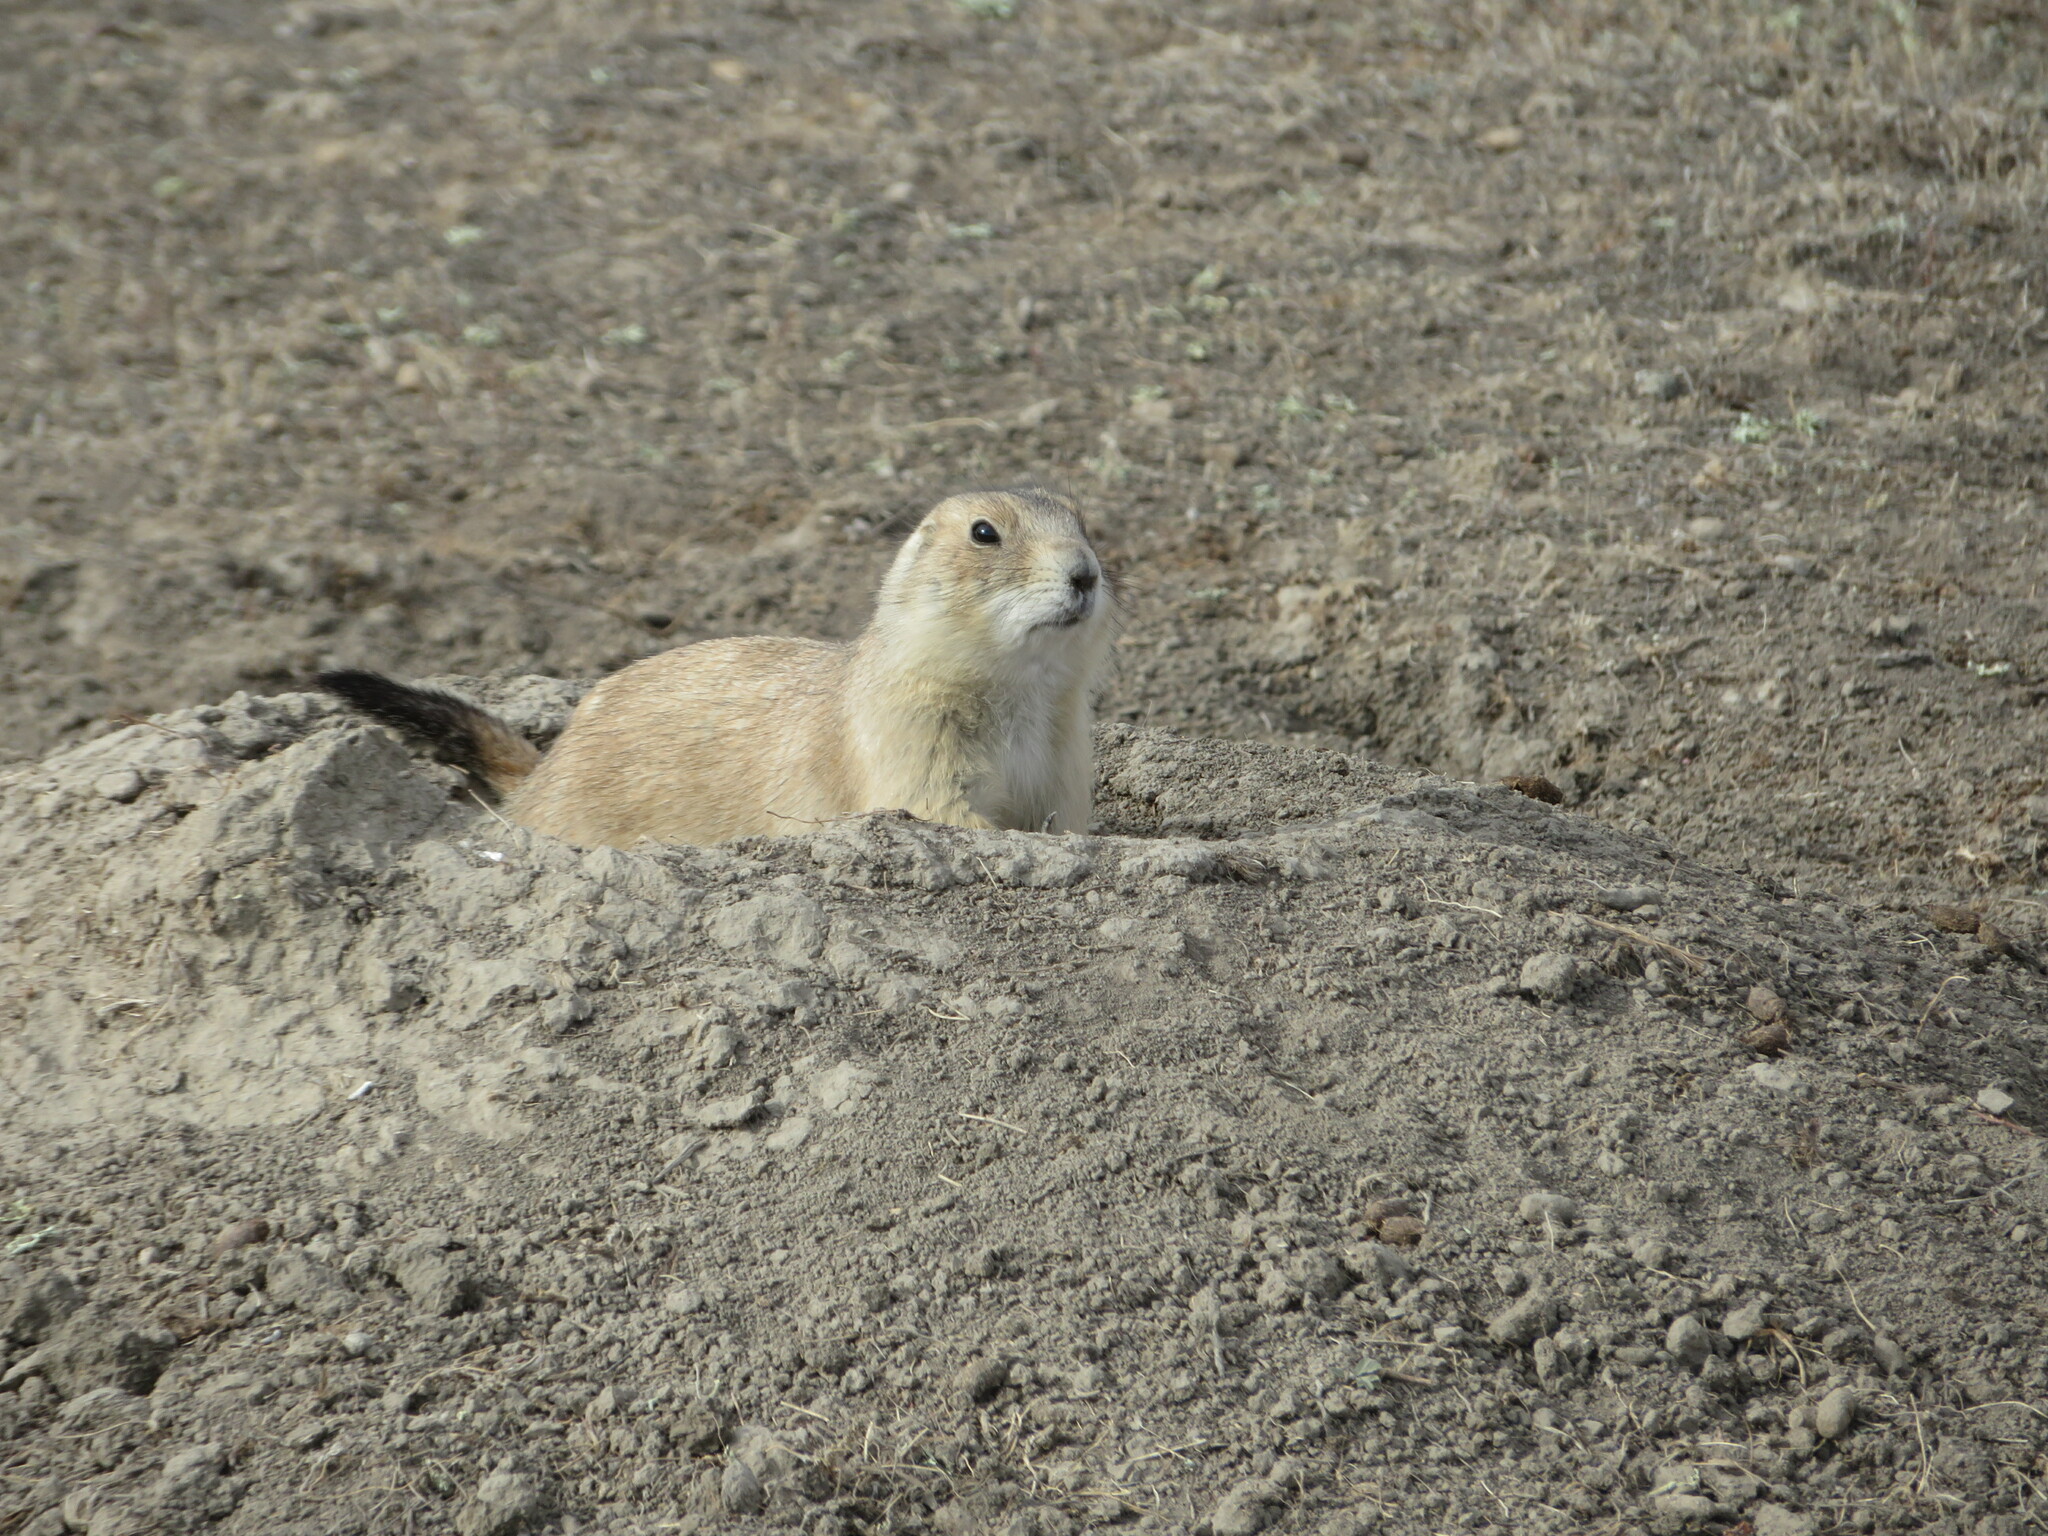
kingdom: Animalia
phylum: Chordata
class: Mammalia
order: Rodentia
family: Sciuridae
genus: Cynomys
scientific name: Cynomys ludovicianus
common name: Black-tailed prairie dog
